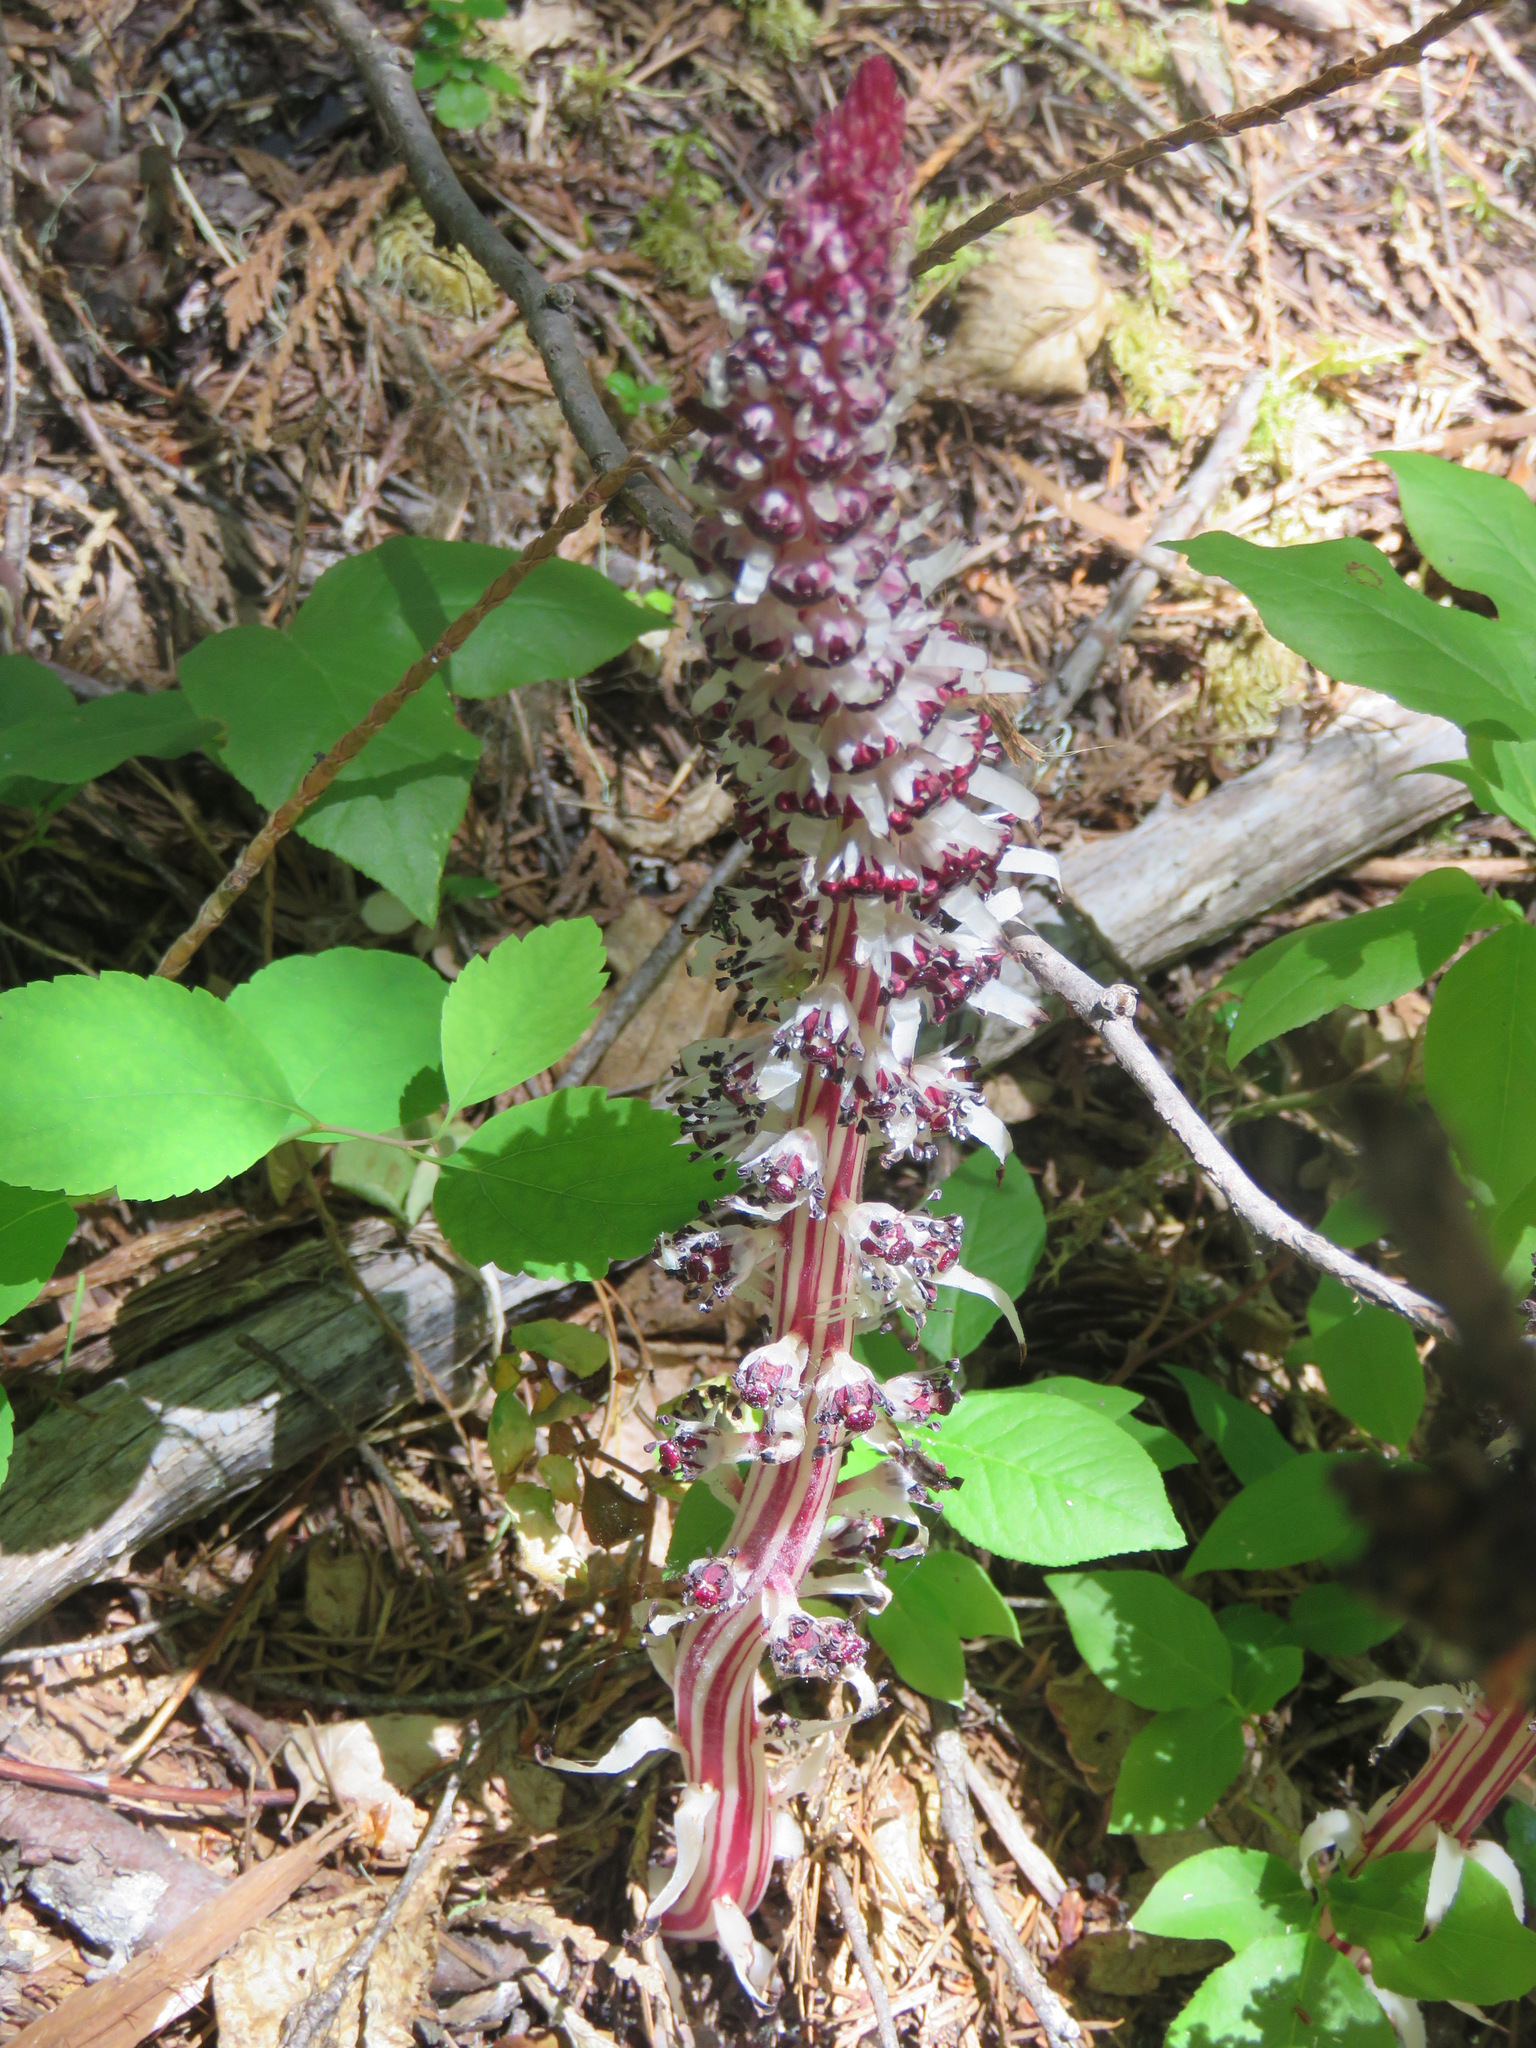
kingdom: Plantae
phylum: Tracheophyta
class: Magnoliopsida
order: Ericales
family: Ericaceae
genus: Allotropa
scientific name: Allotropa virgata
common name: Candy-striped allotropa
